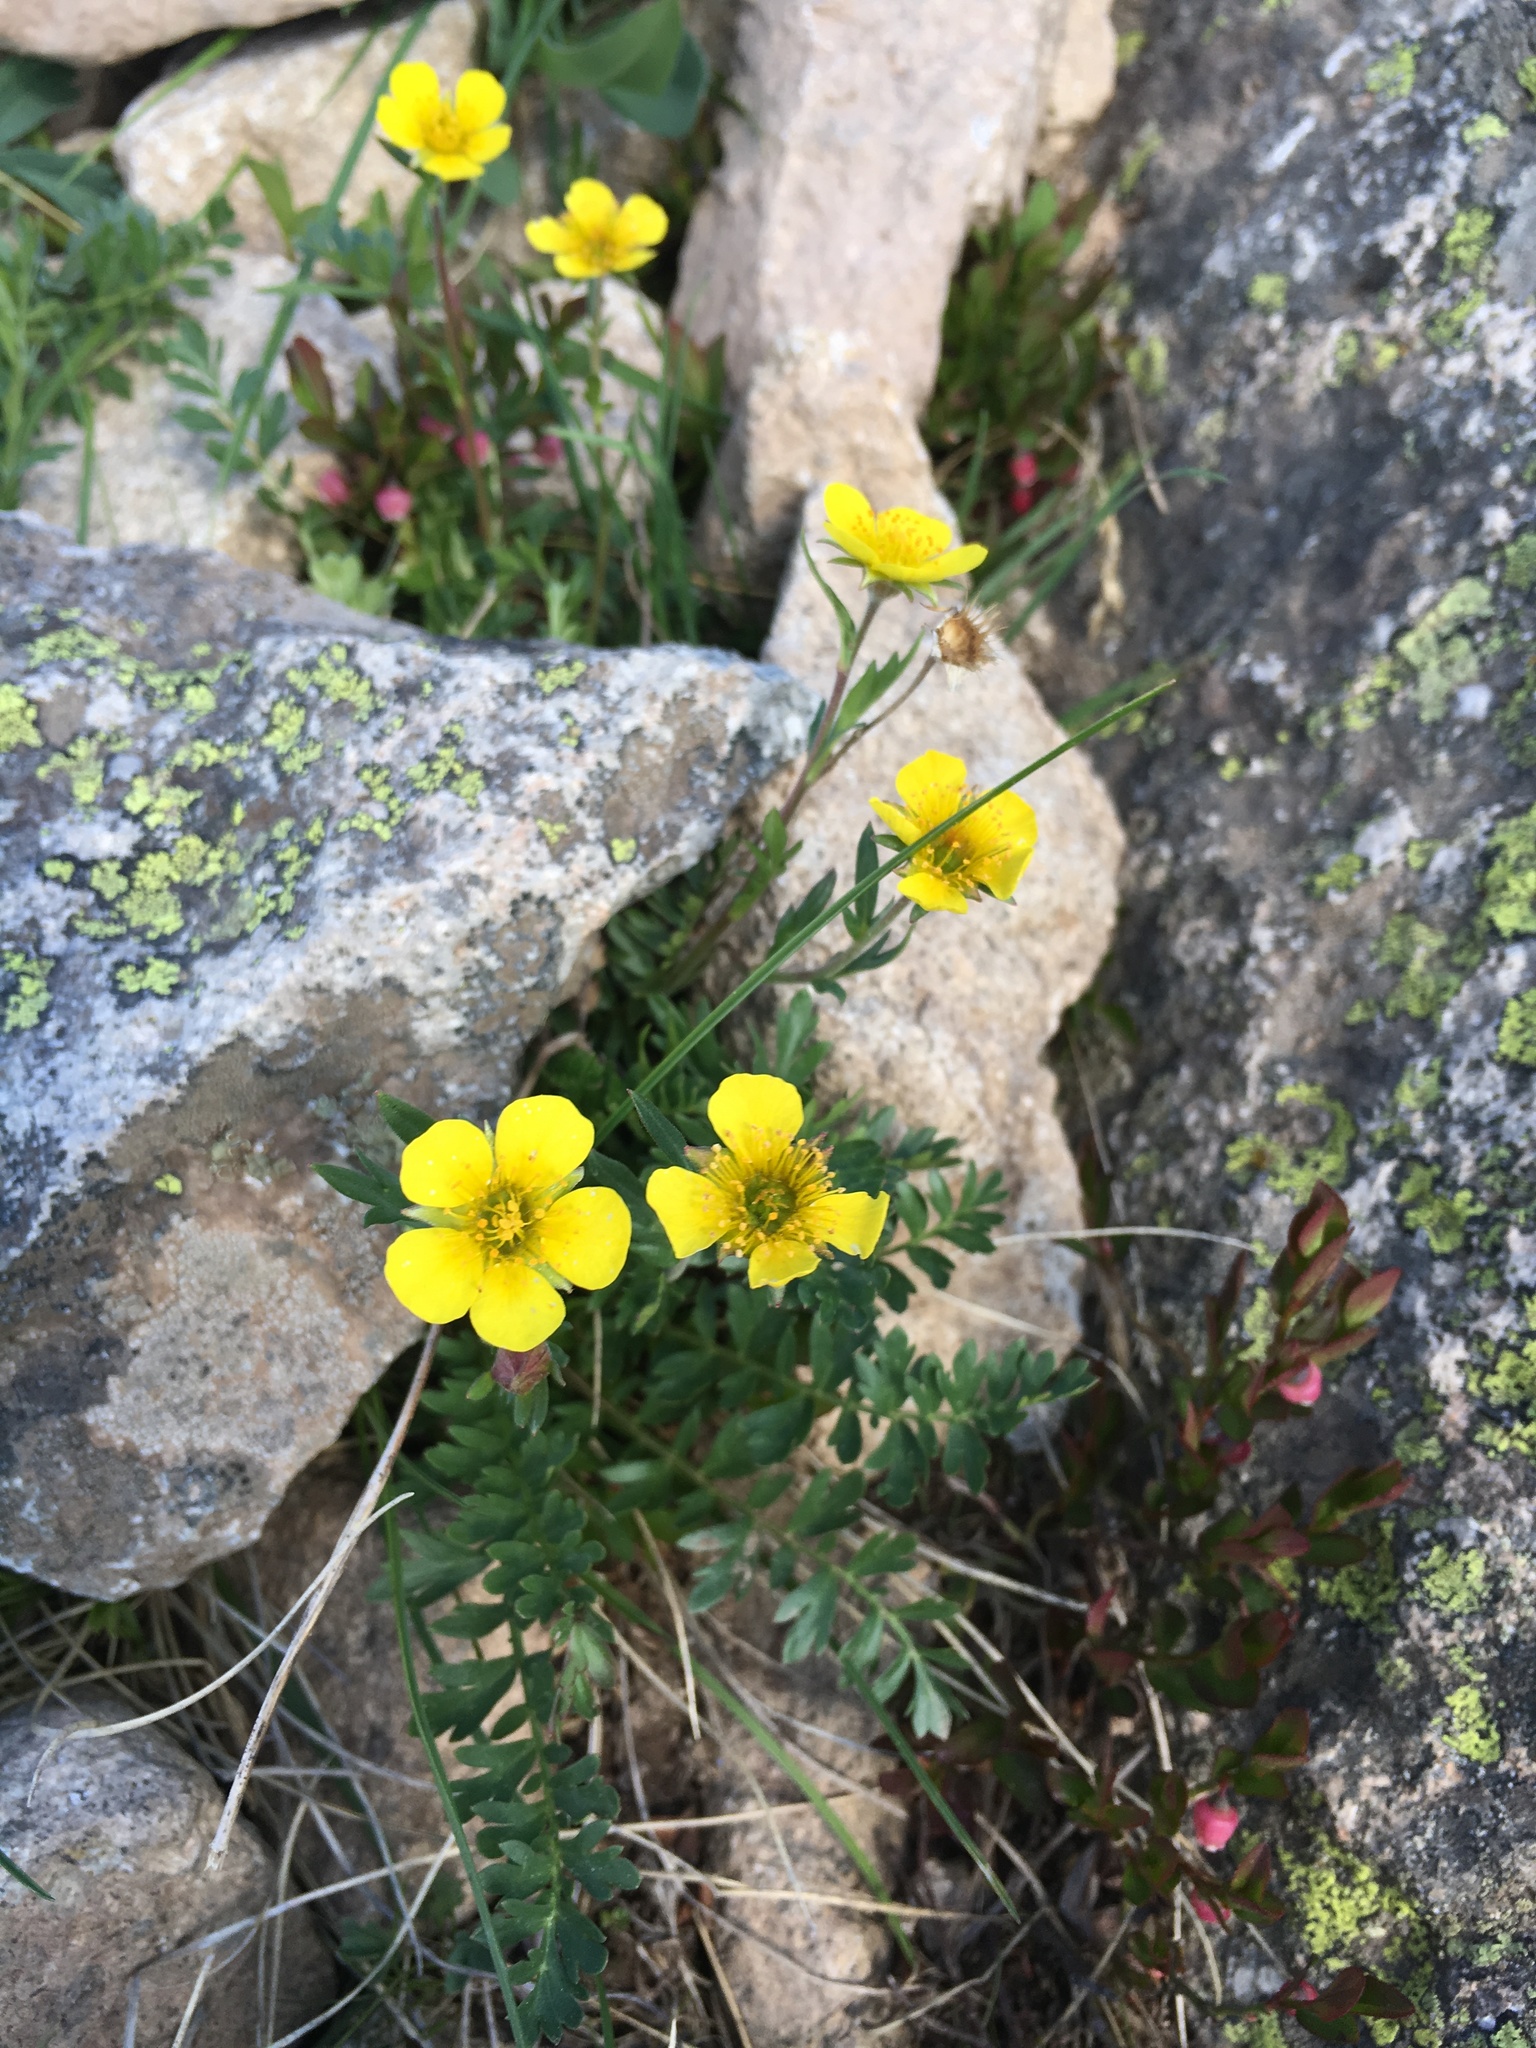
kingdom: Plantae
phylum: Tracheophyta
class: Magnoliopsida
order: Rosales
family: Rosaceae
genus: Geum
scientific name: Geum rossii
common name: Alpine avens
